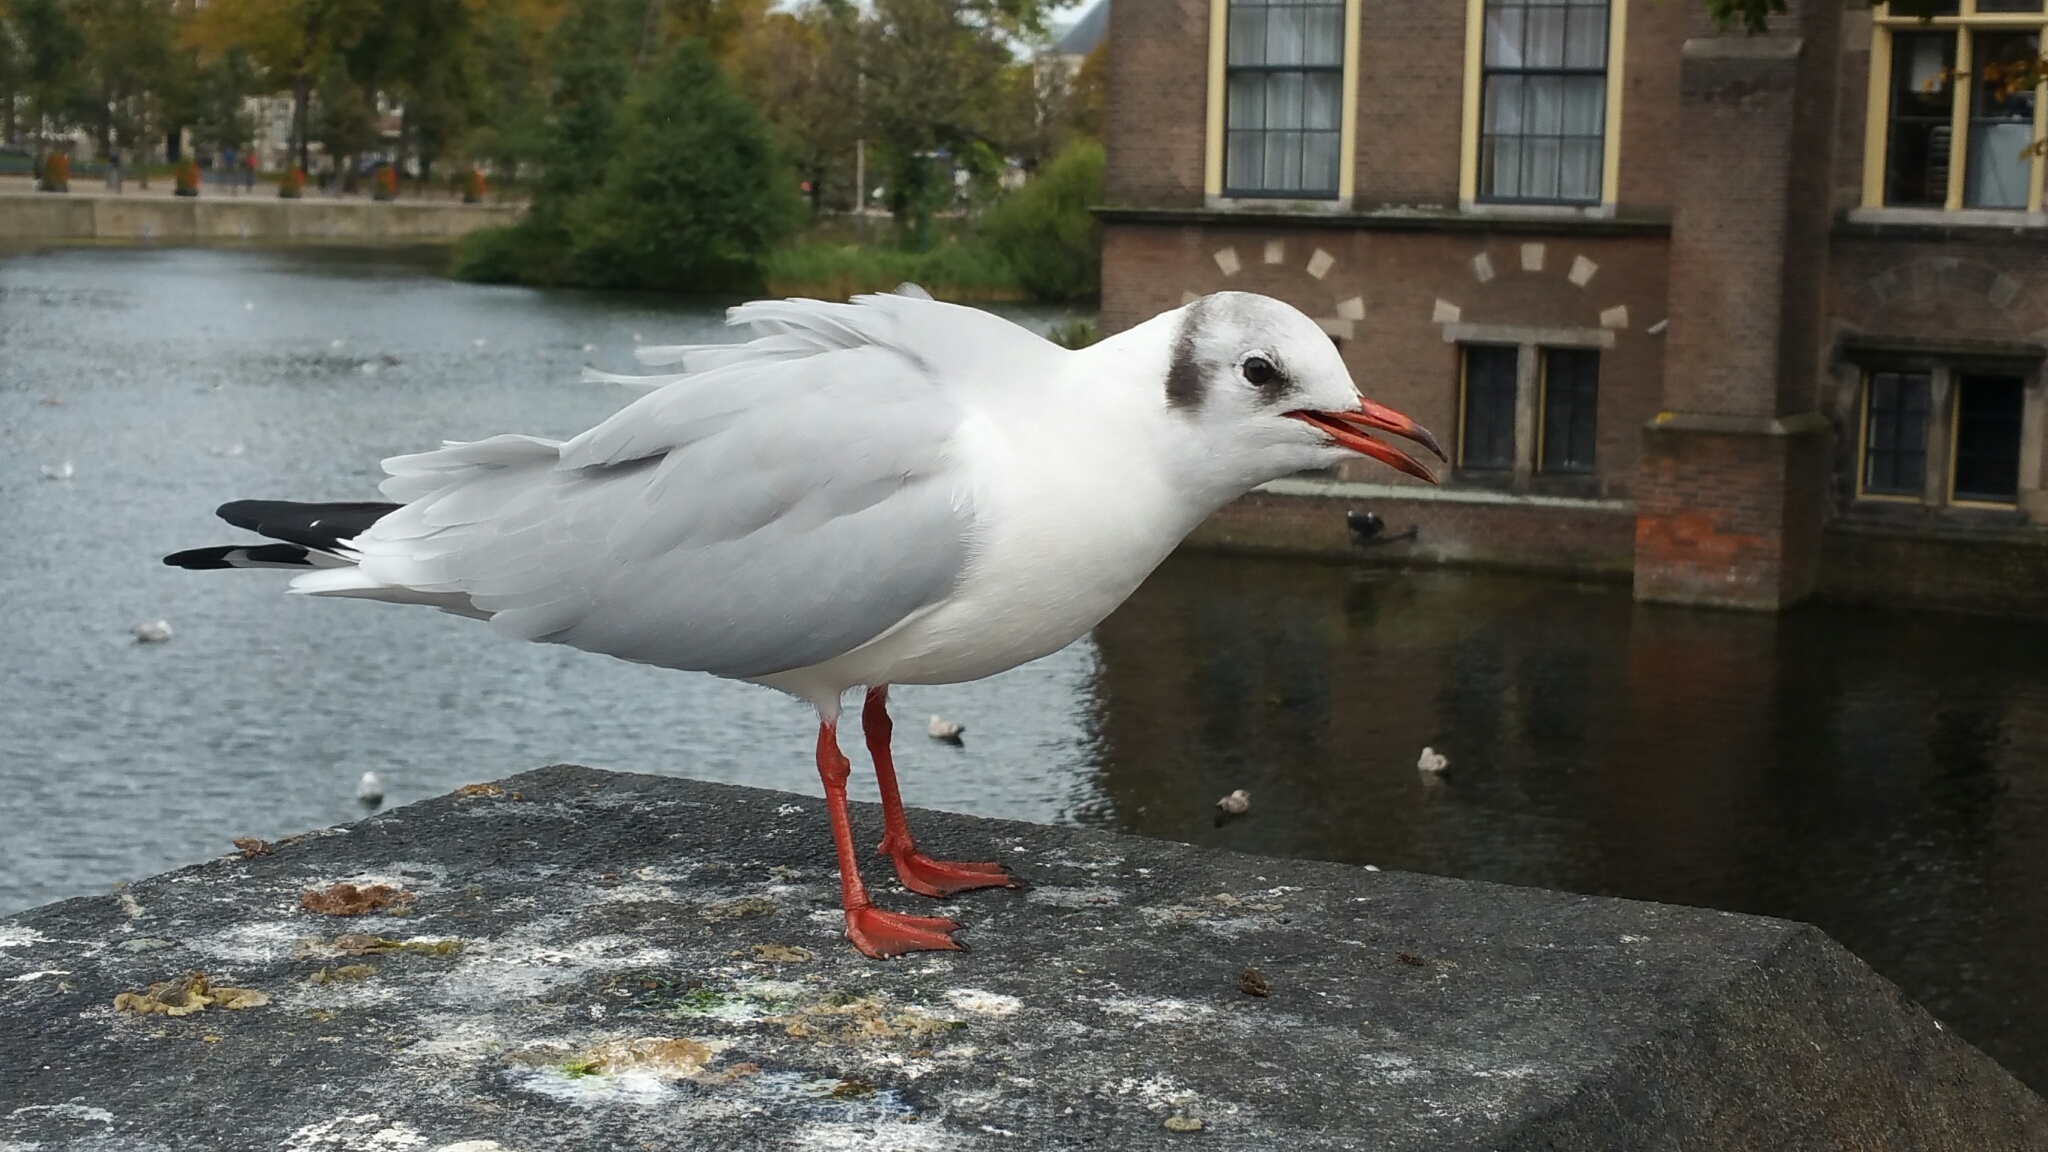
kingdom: Animalia
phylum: Chordata
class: Aves
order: Charadriiformes
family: Laridae
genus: Chroicocephalus
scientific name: Chroicocephalus ridibundus
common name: Black-headed gull
